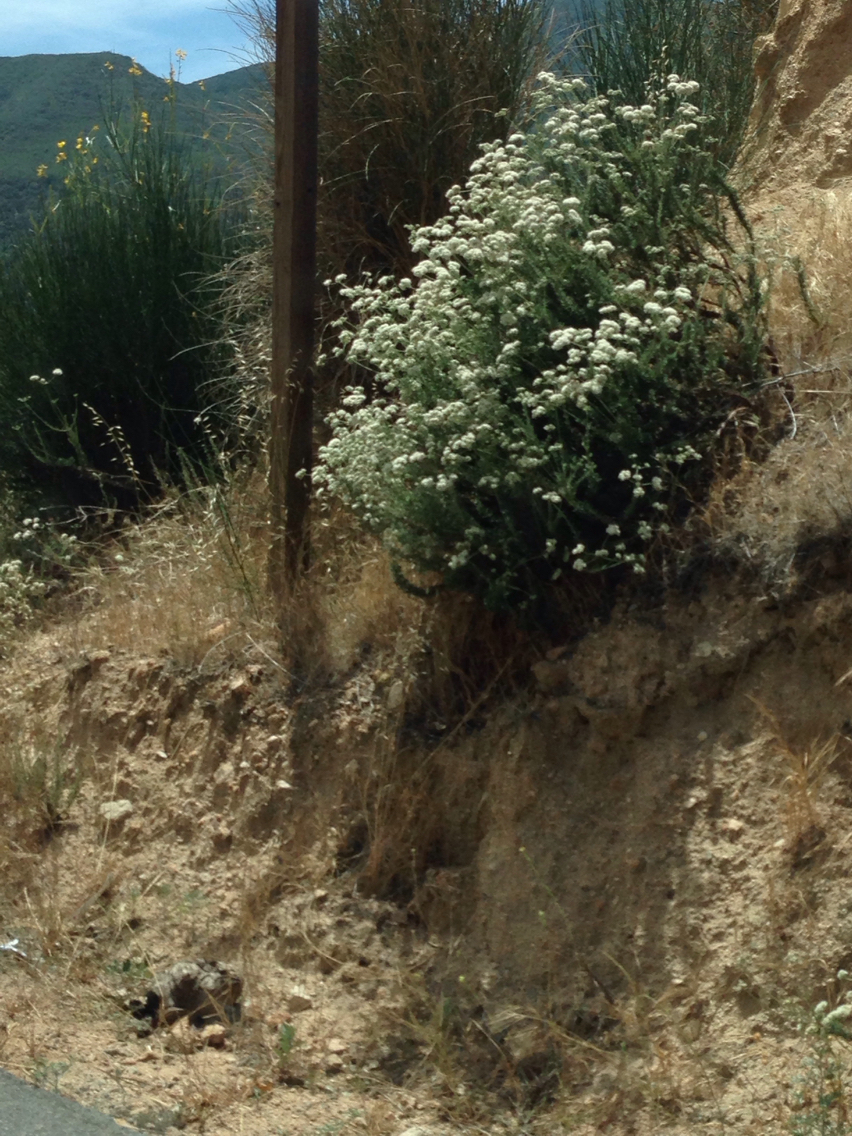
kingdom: Plantae
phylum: Tracheophyta
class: Magnoliopsida
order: Caryophyllales
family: Polygonaceae
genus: Eriogonum
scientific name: Eriogonum fasciculatum
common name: California wild buckwheat
